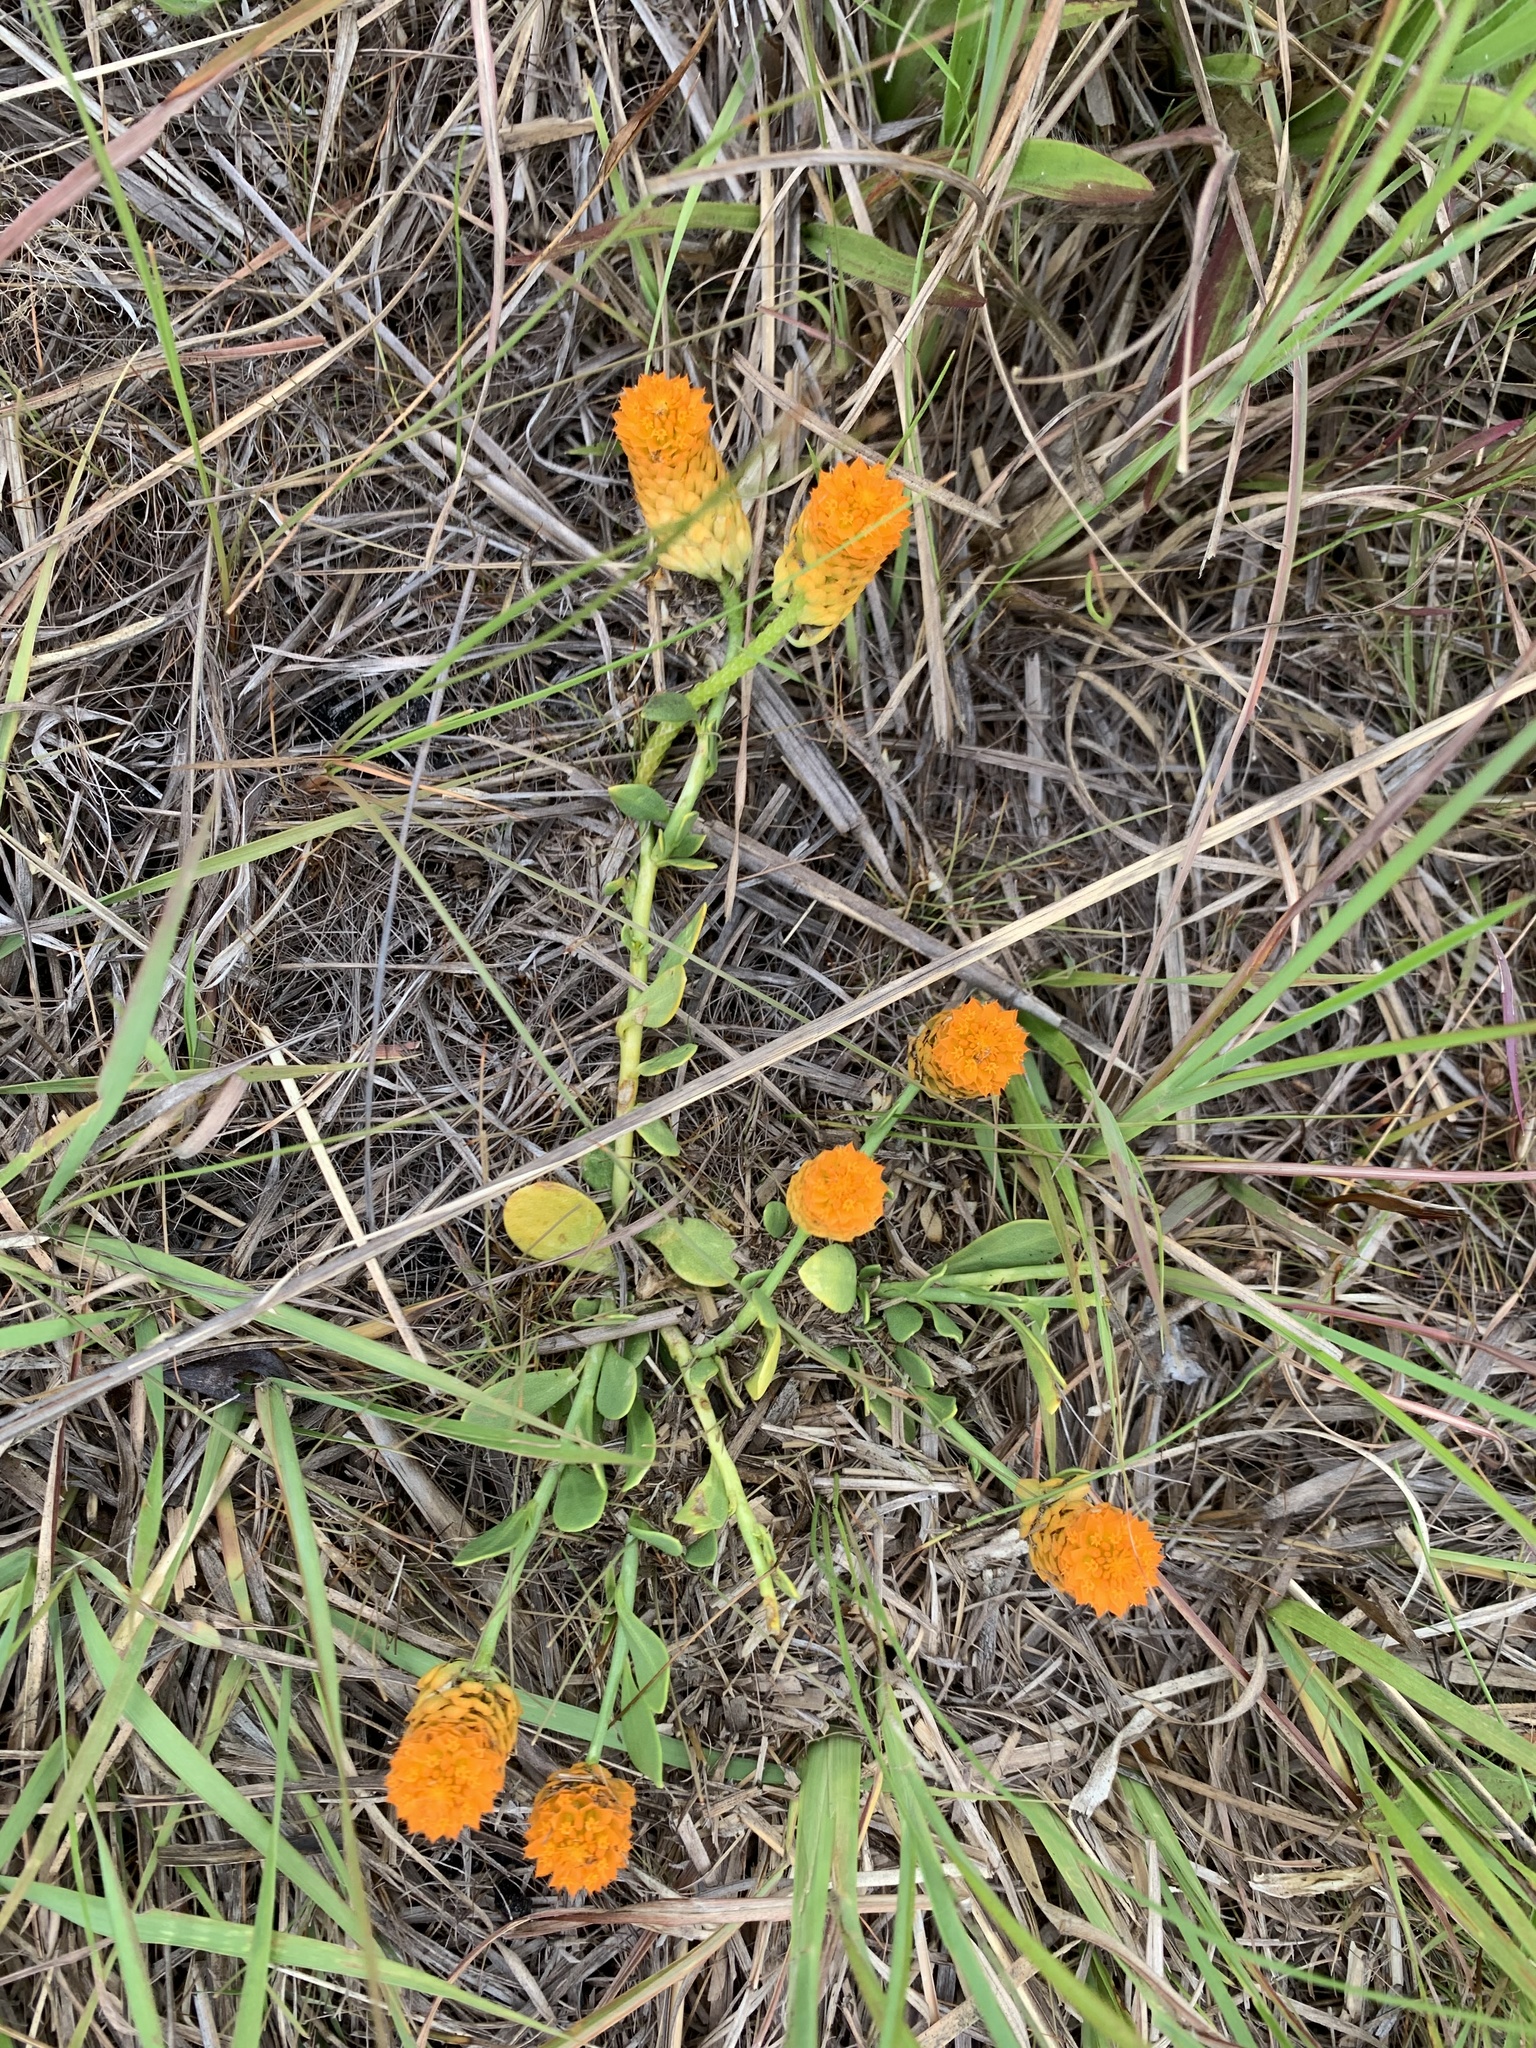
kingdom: Plantae
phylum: Tracheophyta
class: Magnoliopsida
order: Fabales
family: Polygalaceae
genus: Polygala
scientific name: Polygala lutea
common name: Orange milkwort
